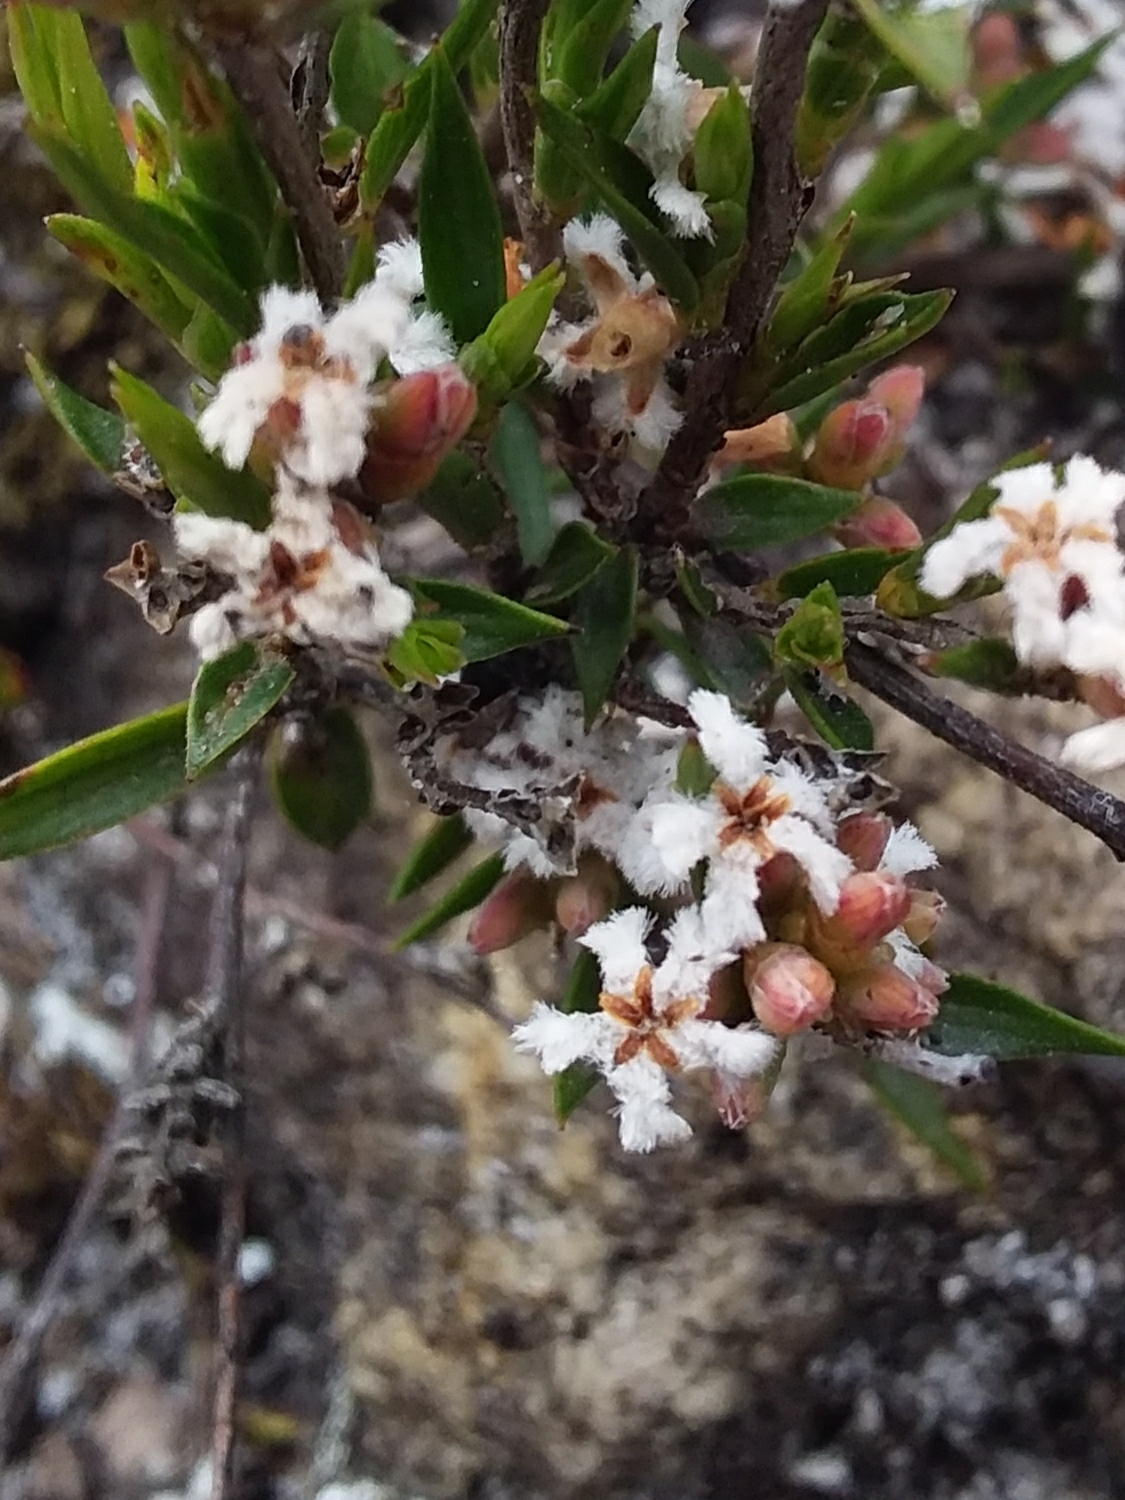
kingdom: Plantae
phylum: Tracheophyta
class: Magnoliopsida
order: Ericales
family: Ericaceae
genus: Leucopogon
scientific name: Leucopogon virgatus
